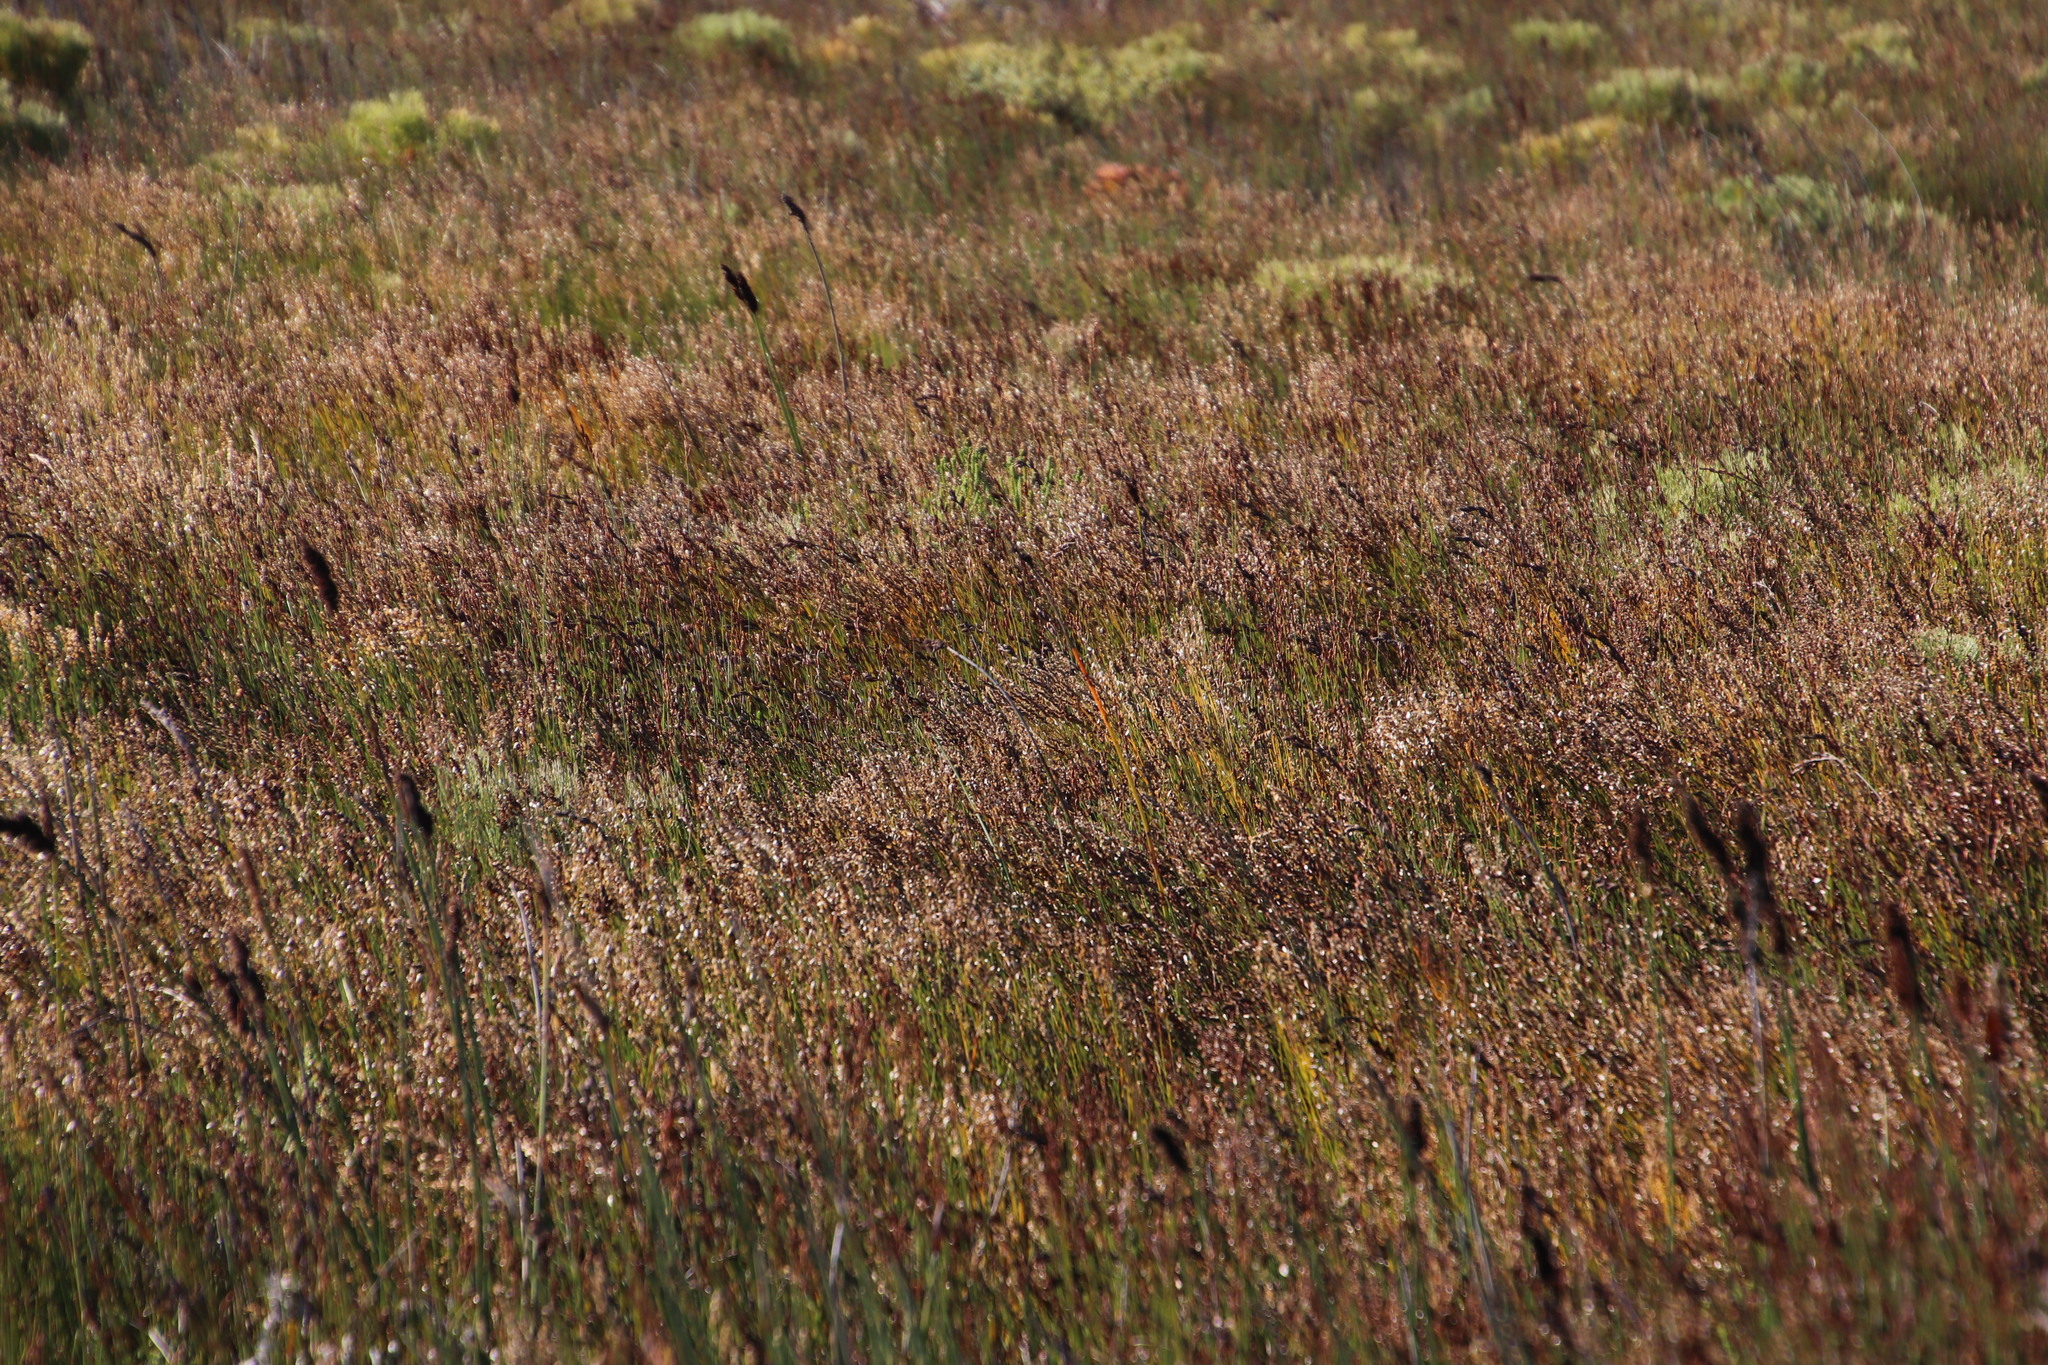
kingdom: Plantae
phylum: Tracheophyta
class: Liliopsida
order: Poales
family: Restionaceae
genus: Elegia
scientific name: Elegia cuspidata
